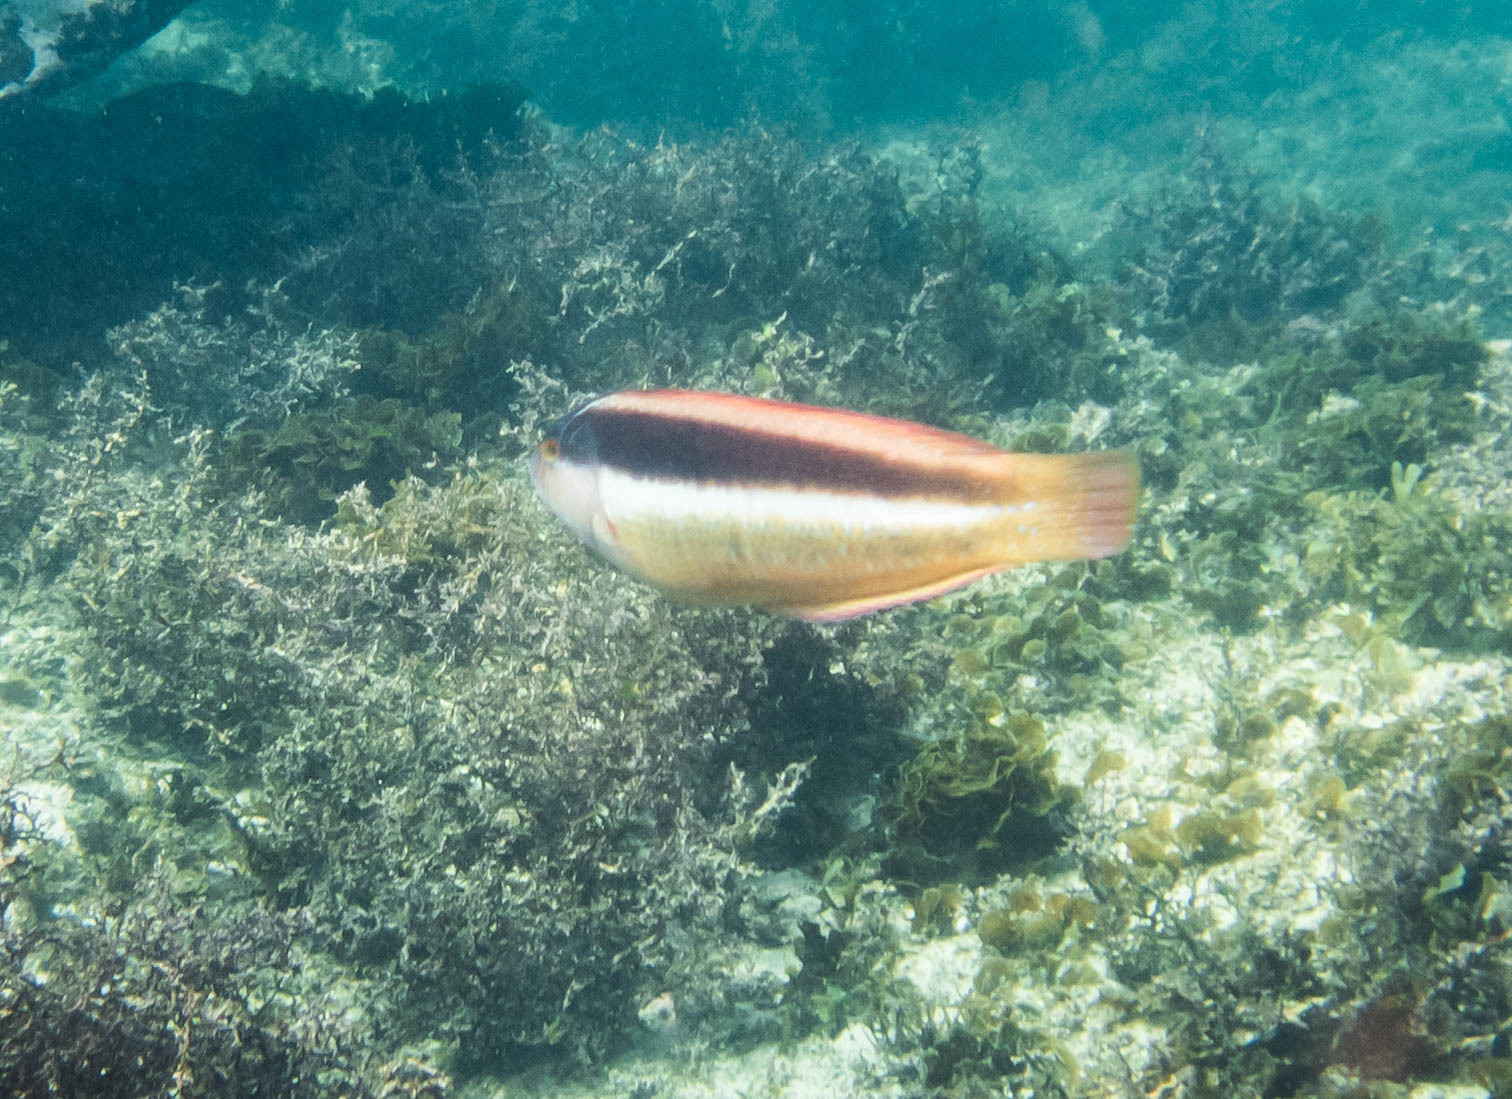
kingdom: Animalia
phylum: Chordata
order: Perciformes
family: Labridae
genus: Ophthalmolepis
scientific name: Ophthalmolepis lineolata
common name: Maori wrasse
